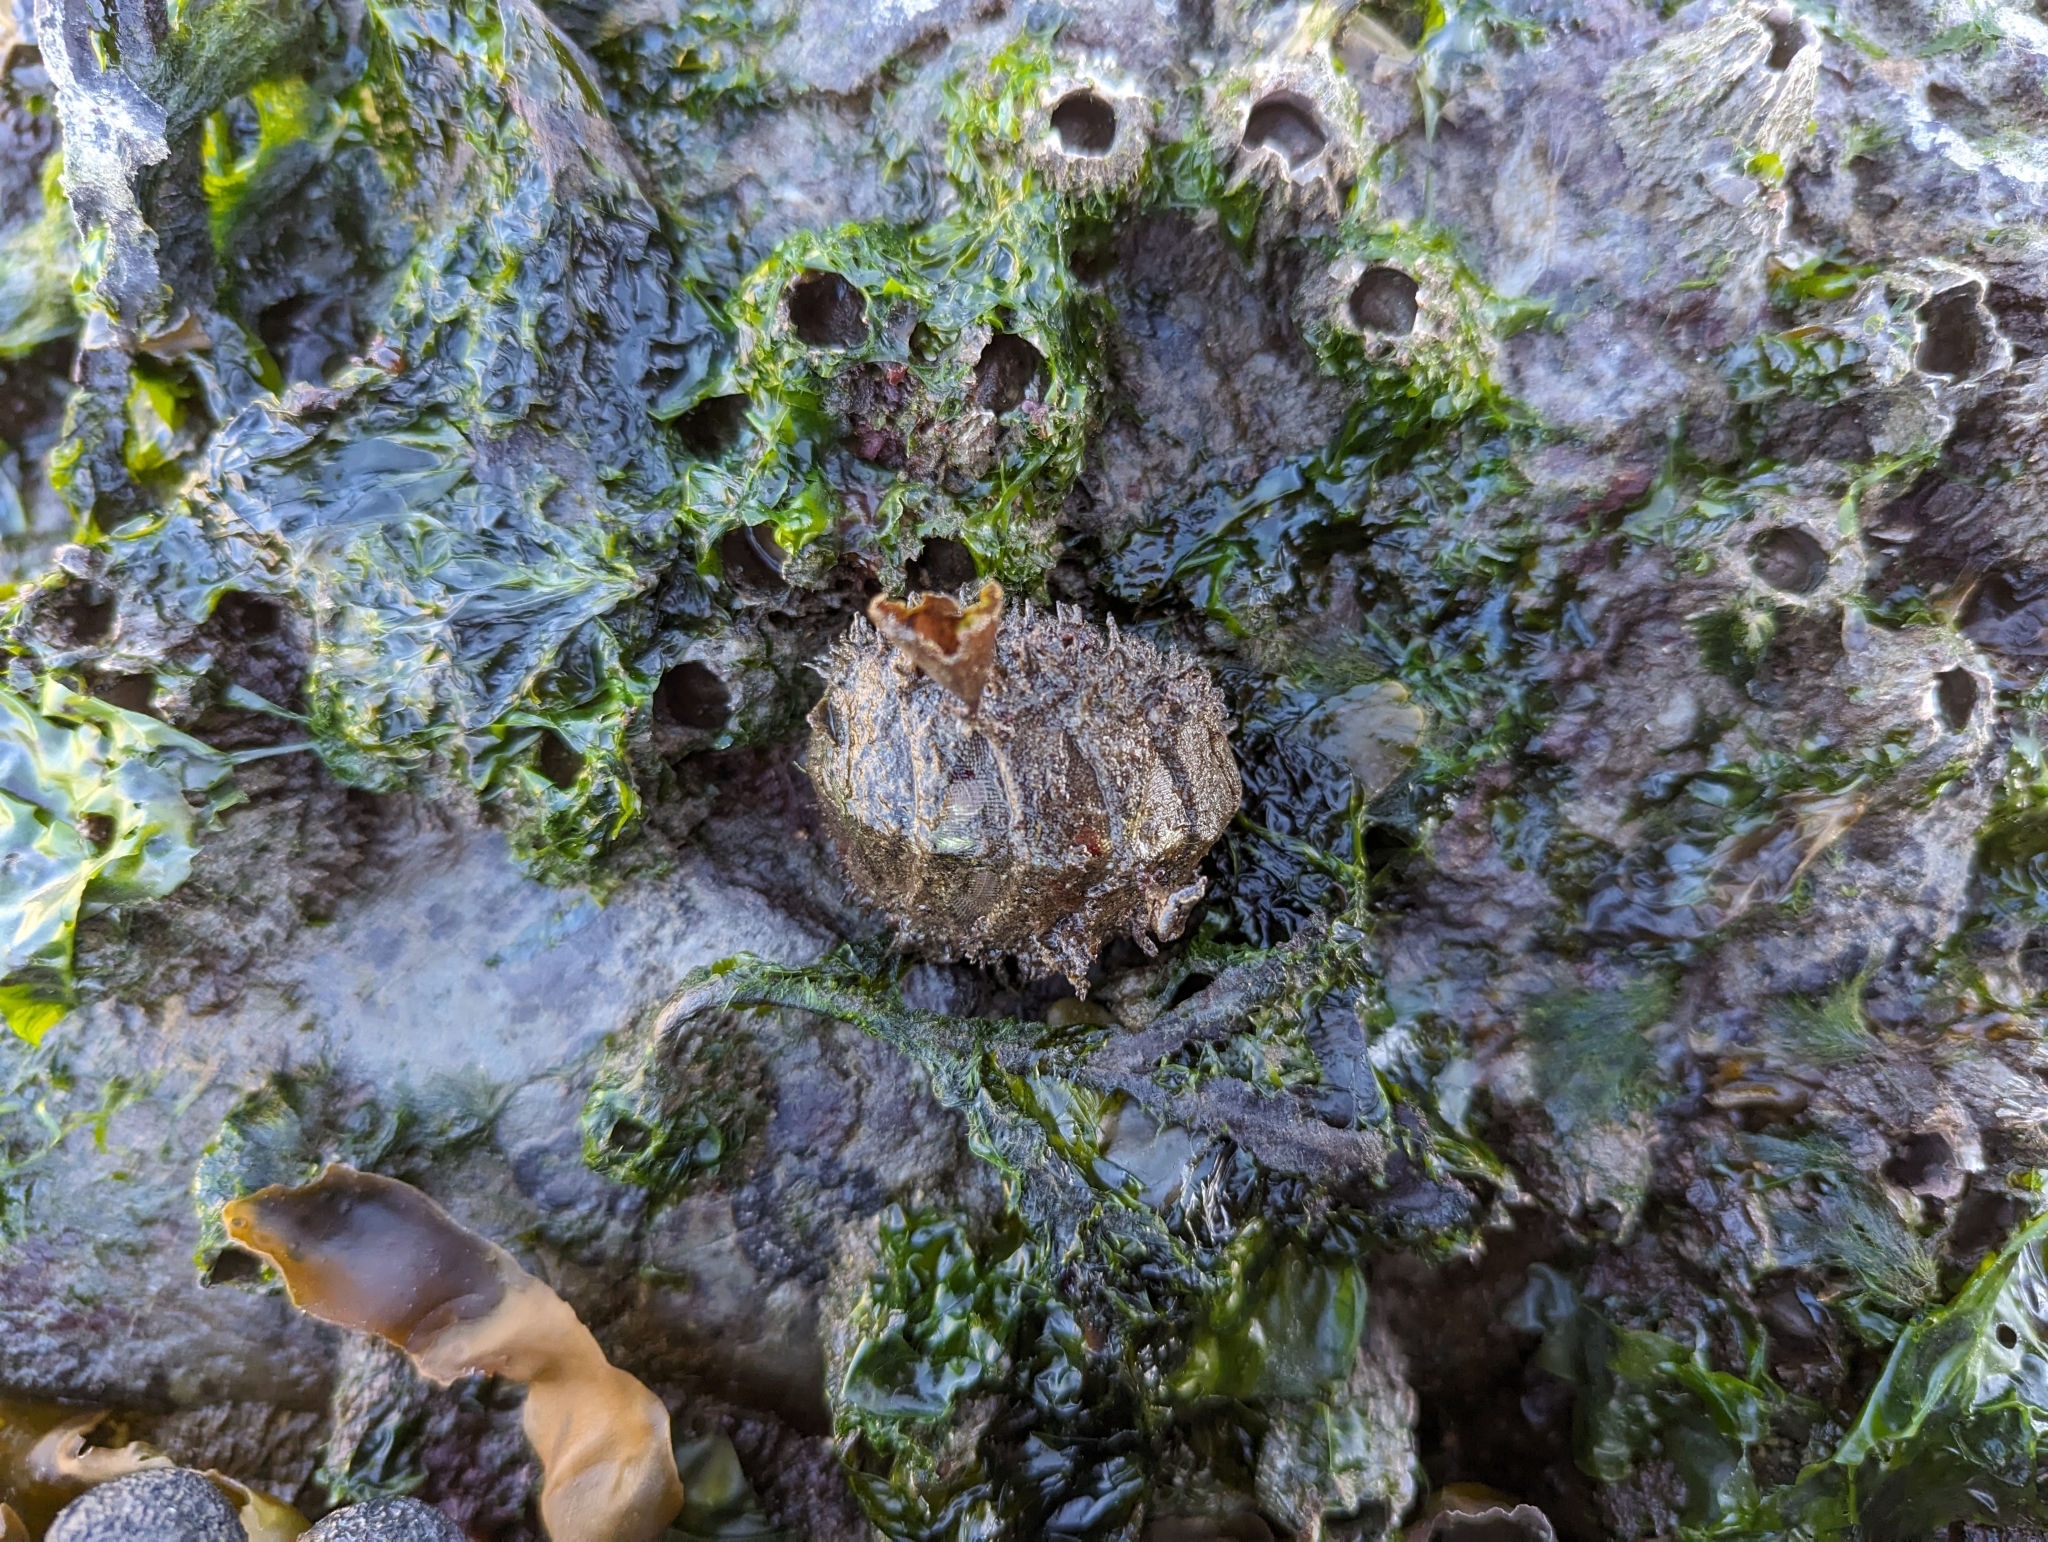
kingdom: Animalia
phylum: Mollusca
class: Polyplacophora
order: Chitonida
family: Mopaliidae
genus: Mopalia
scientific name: Mopalia muscosa
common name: Mossy chiton
